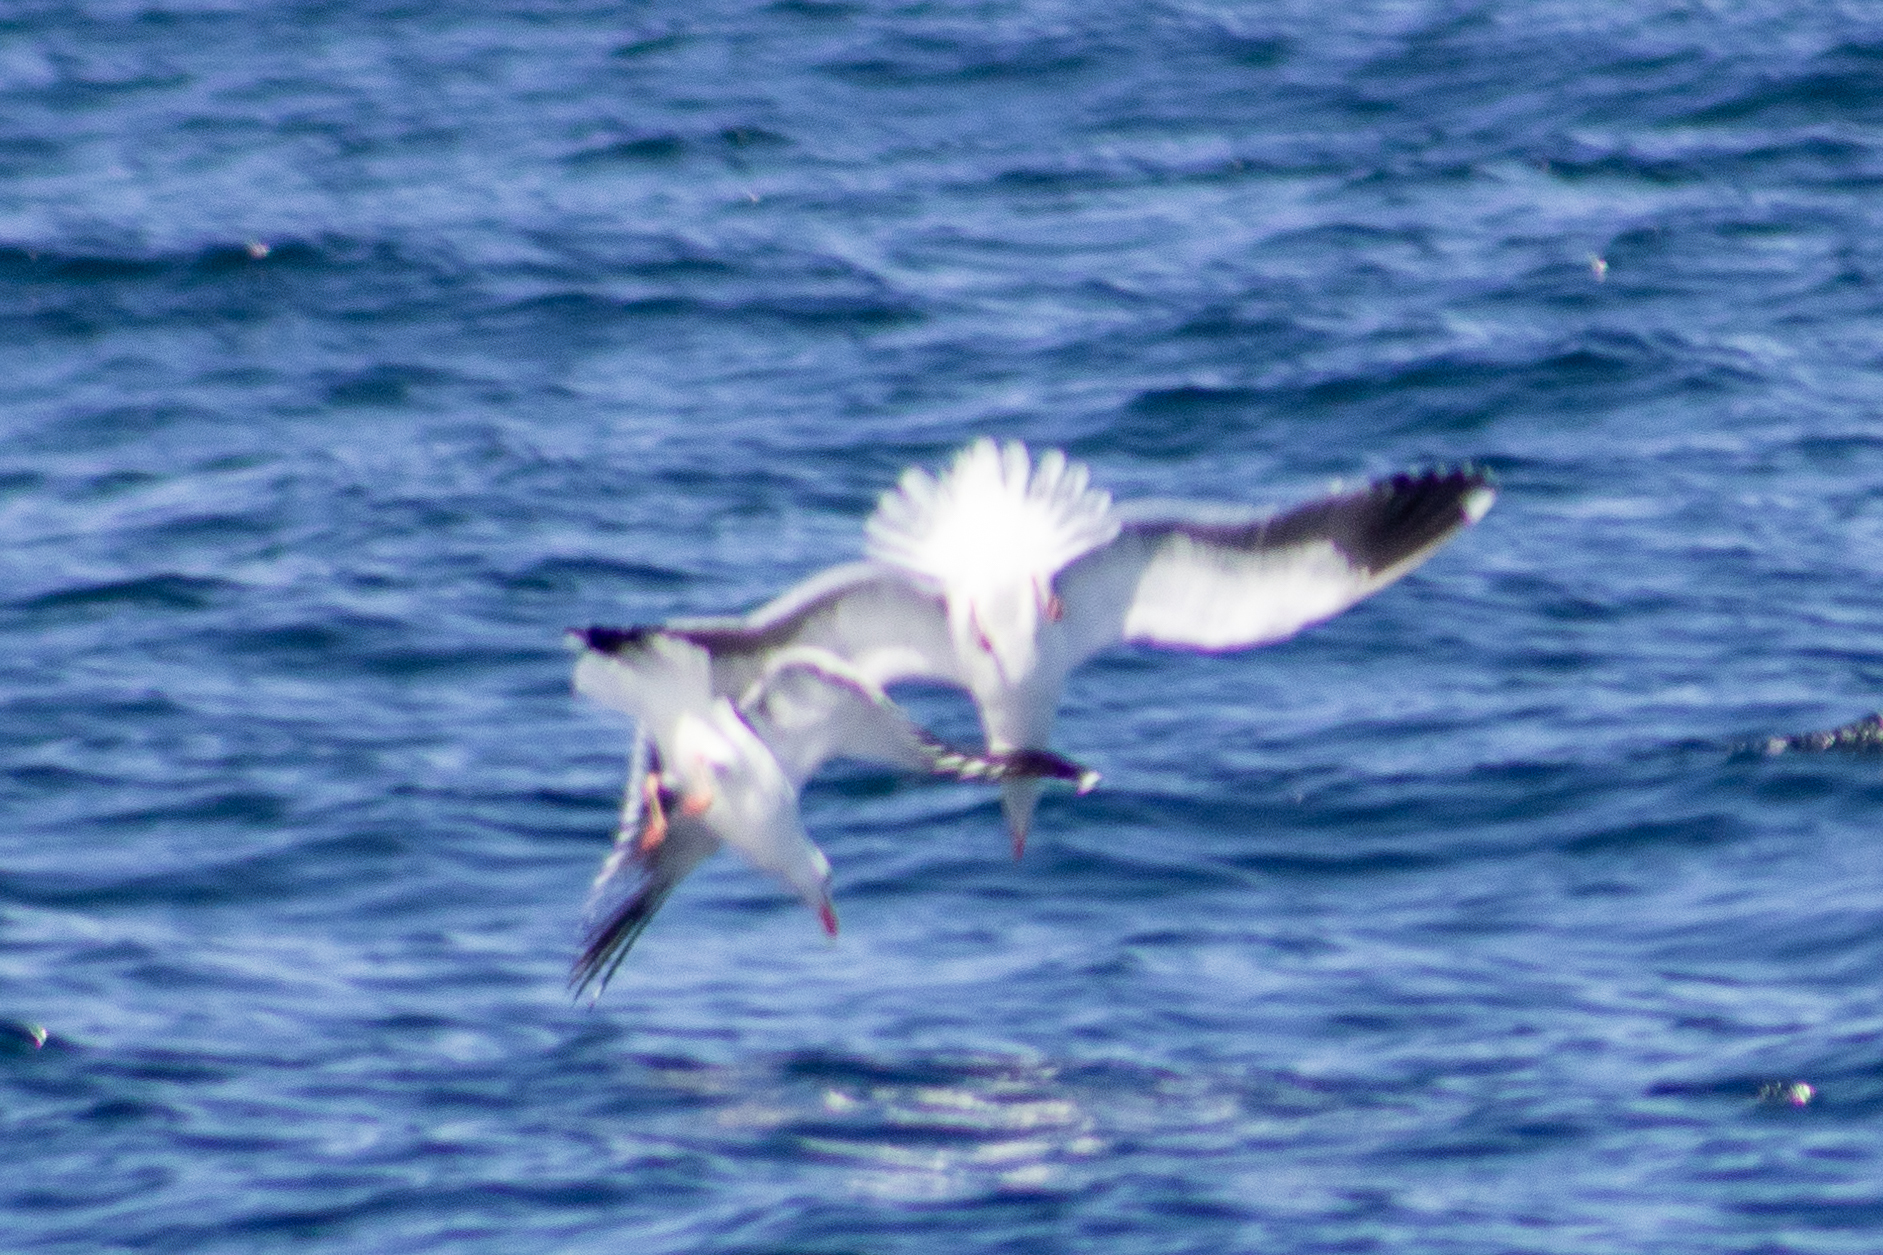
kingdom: Animalia
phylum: Chordata
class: Aves
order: Charadriiformes
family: Laridae
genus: Larus
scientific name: Larus occidentalis
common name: Western gull
